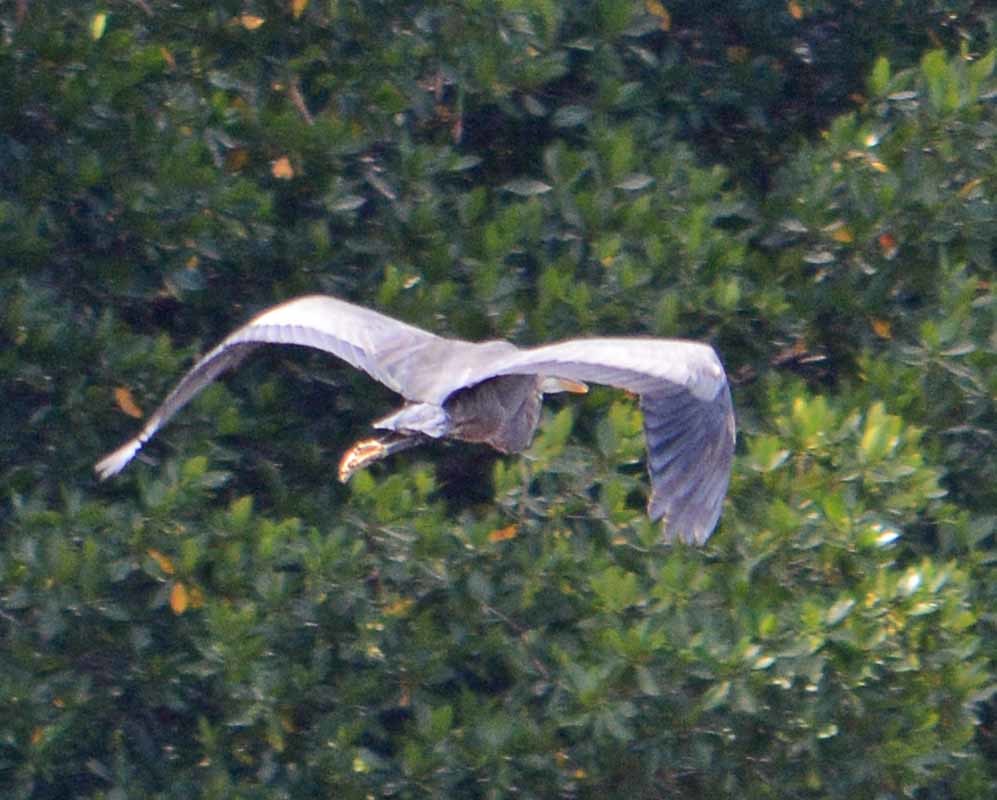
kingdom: Animalia
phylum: Chordata
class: Aves
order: Pelecaniformes
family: Ardeidae
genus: Ardea
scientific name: Ardea herodias
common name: Great blue heron
